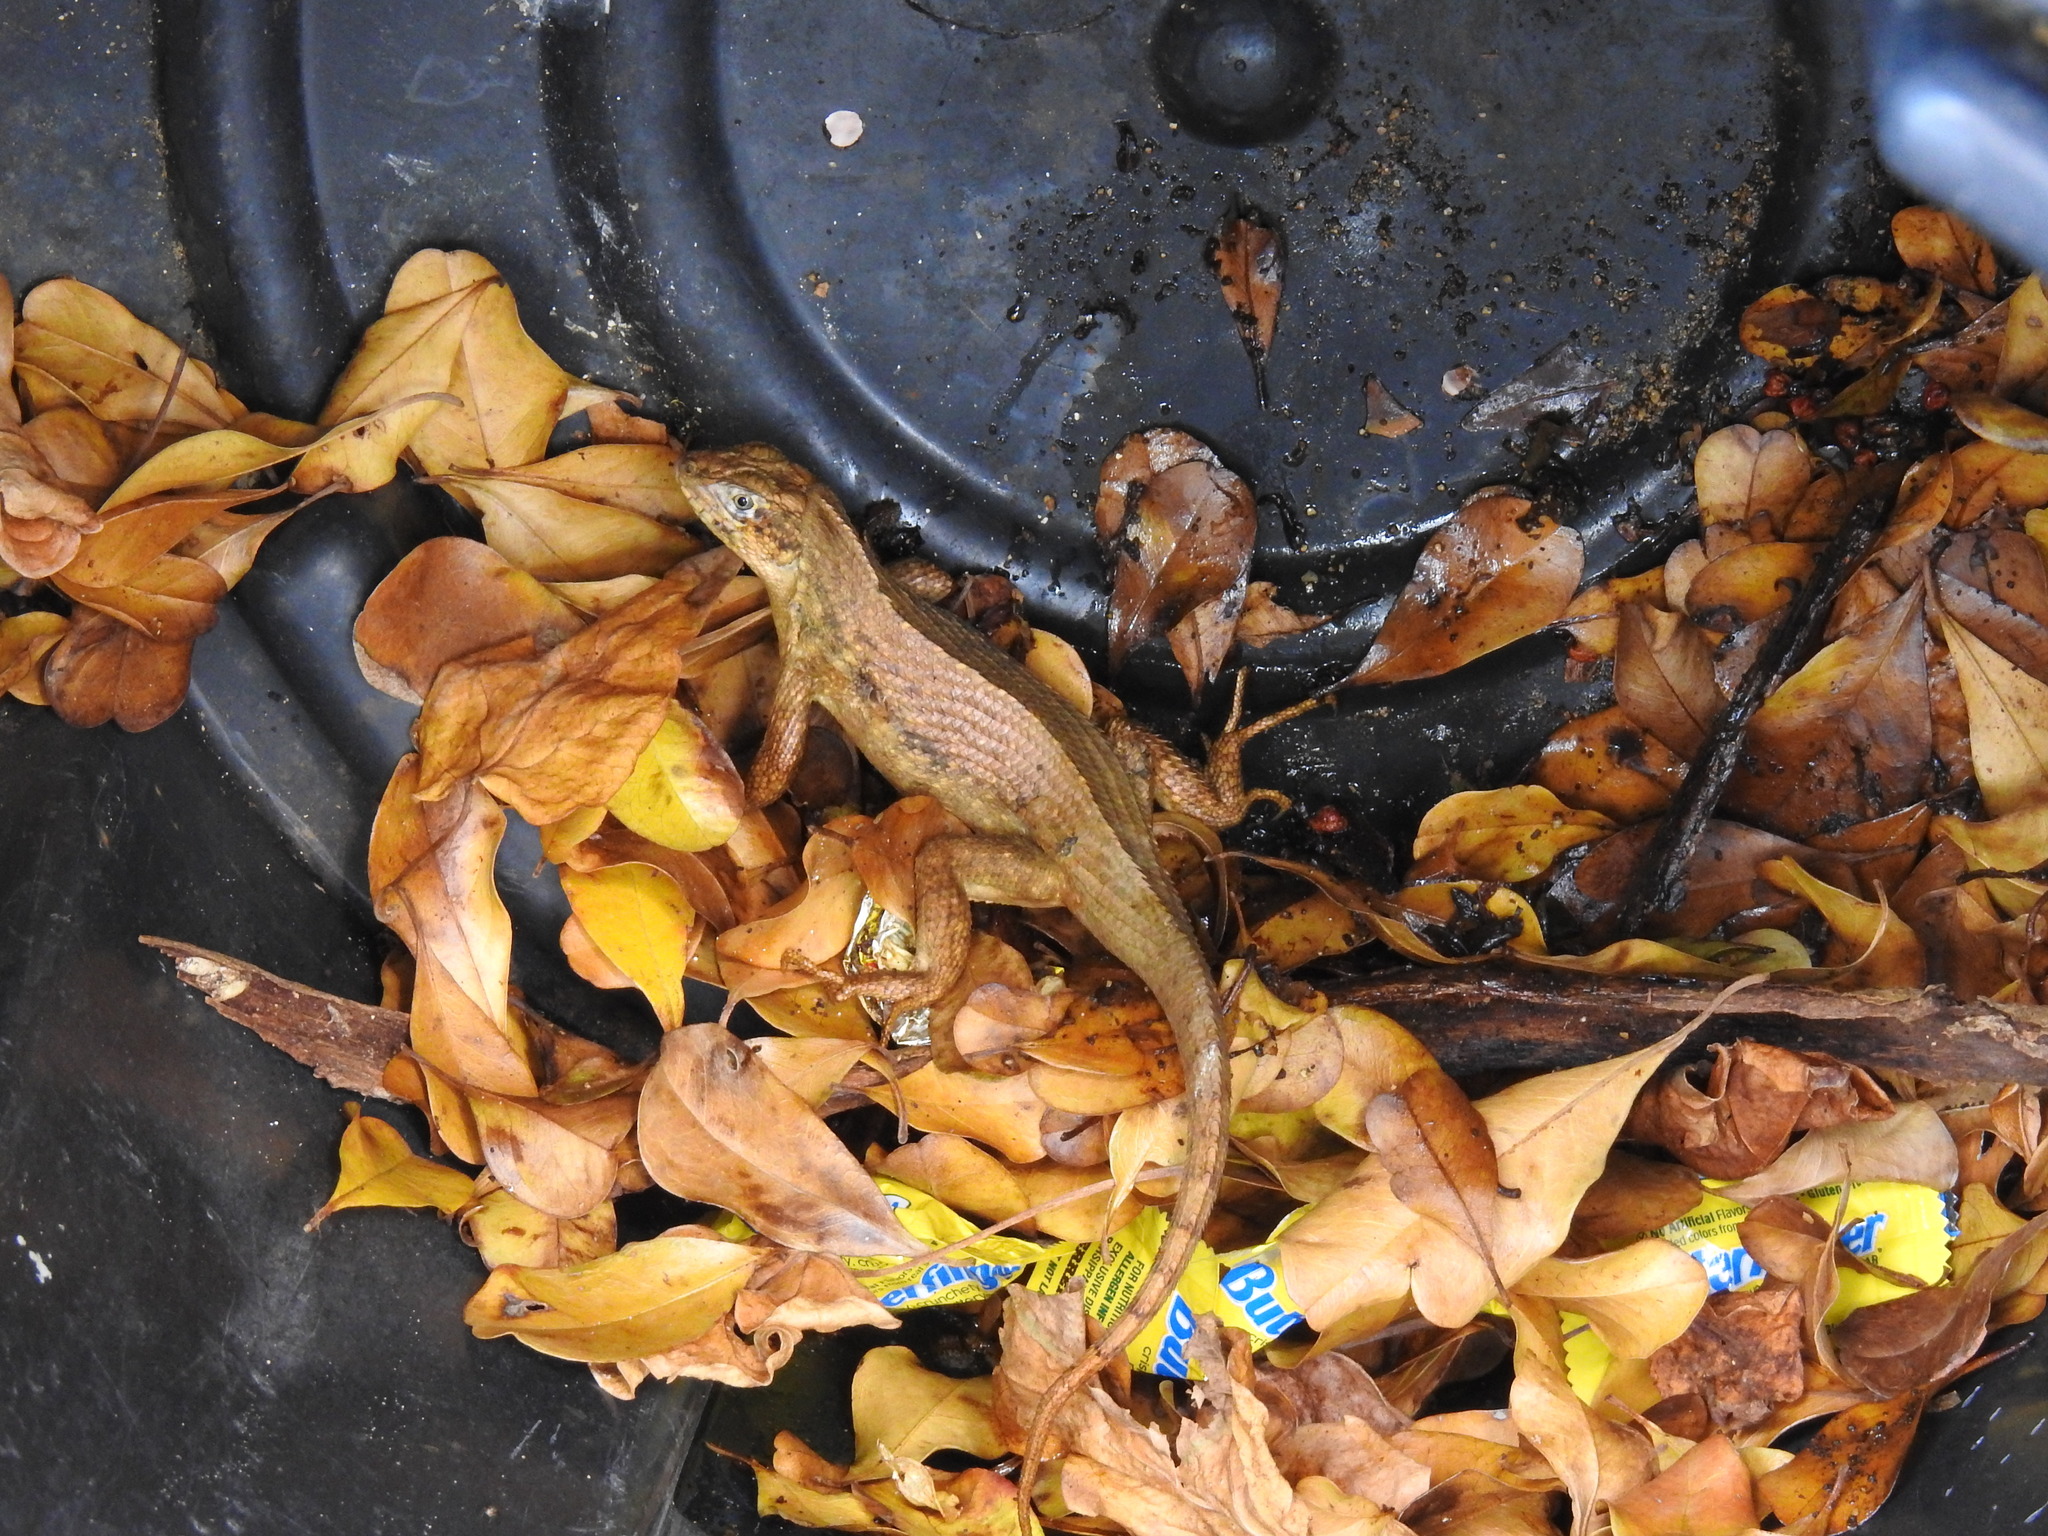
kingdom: Animalia
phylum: Chordata
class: Squamata
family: Leiocephalidae
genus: Leiocephalus
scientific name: Leiocephalus carinatus
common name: Northern curly-tailed lizard
